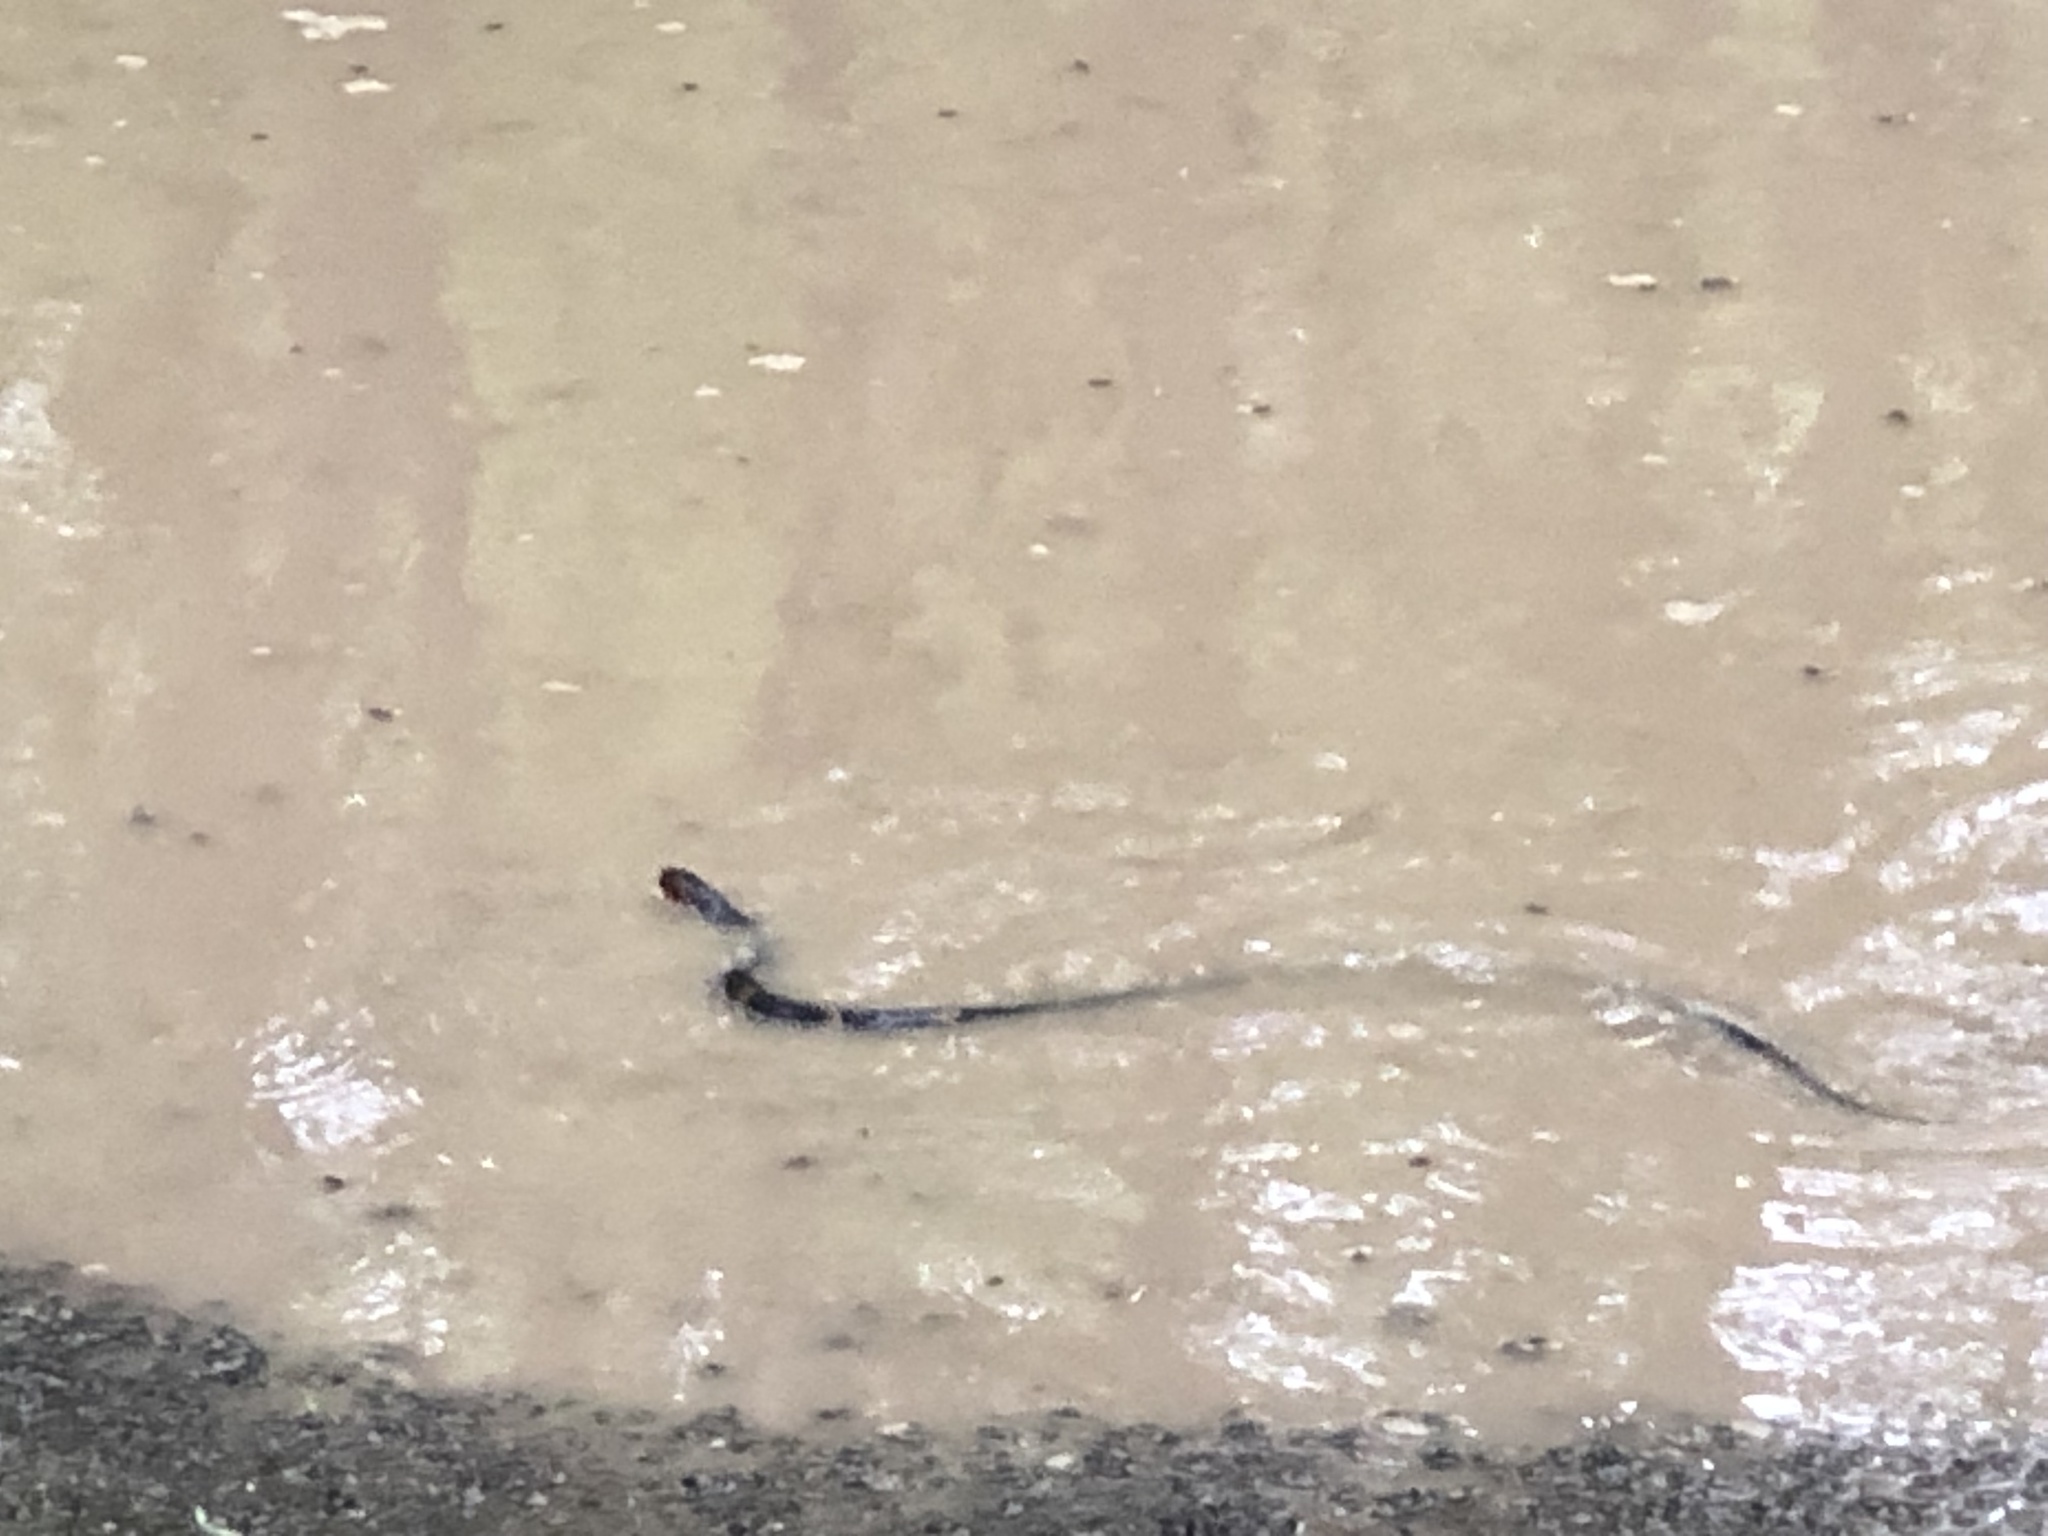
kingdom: Animalia
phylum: Chordata
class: Squamata
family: Colubridae
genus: Nerodia
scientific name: Nerodia fasciata
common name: Southern water snake
